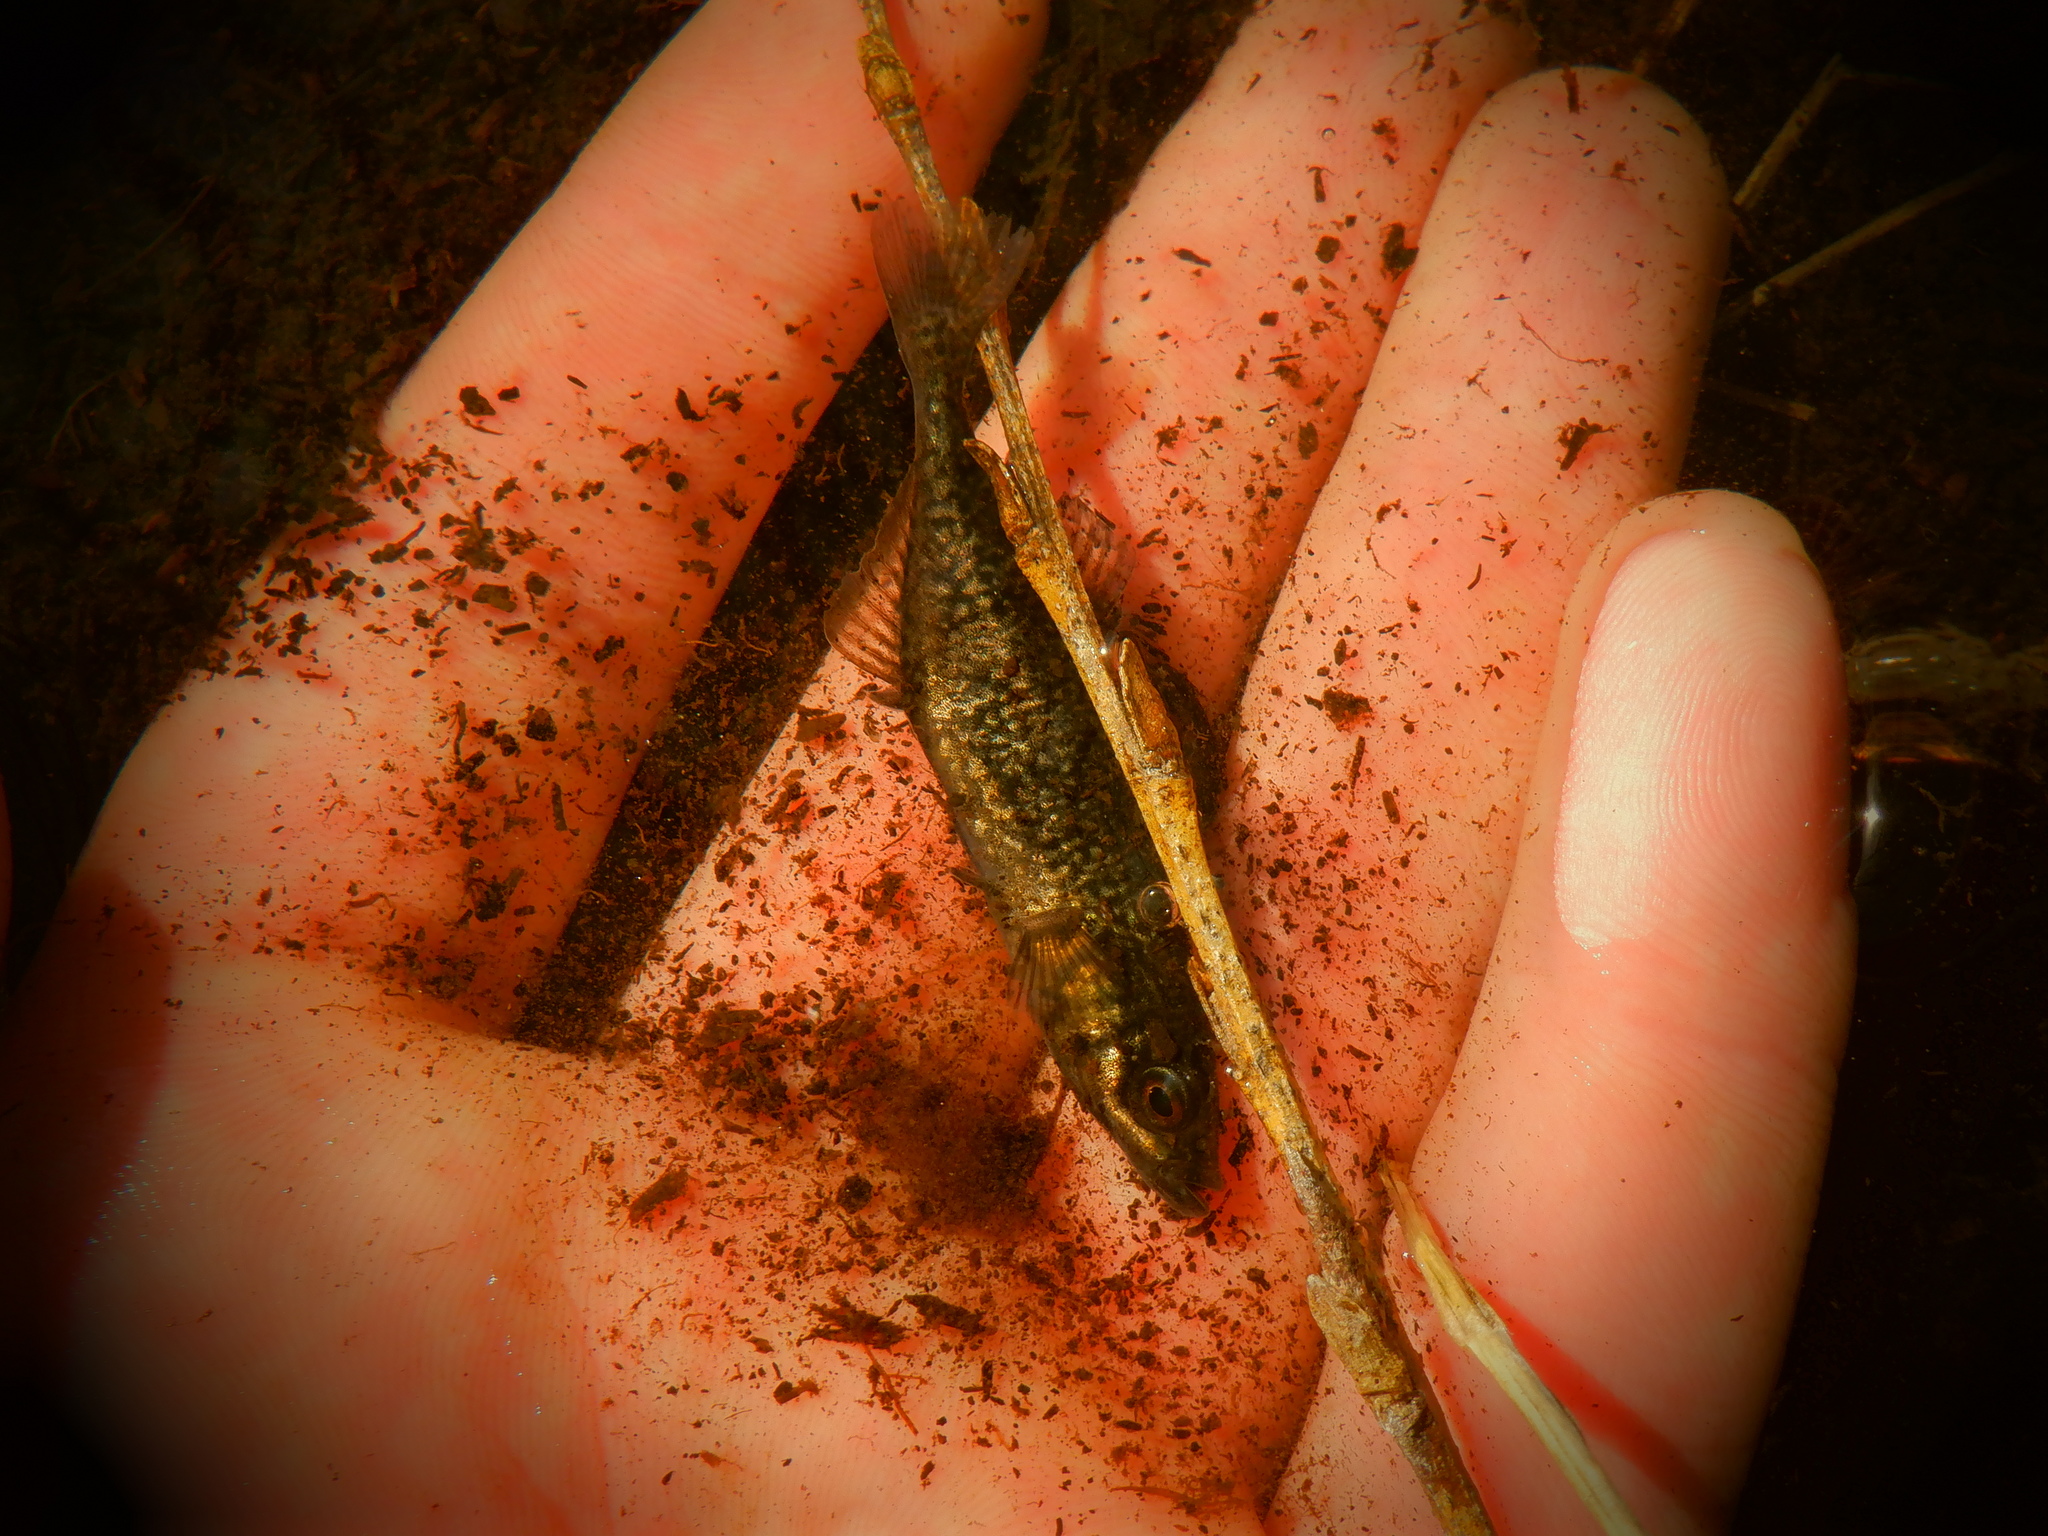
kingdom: Animalia
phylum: Chordata
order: Gasterosteiformes
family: Gasterosteidae
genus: Culaea
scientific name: Culaea inconstans
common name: Brook stickleback
